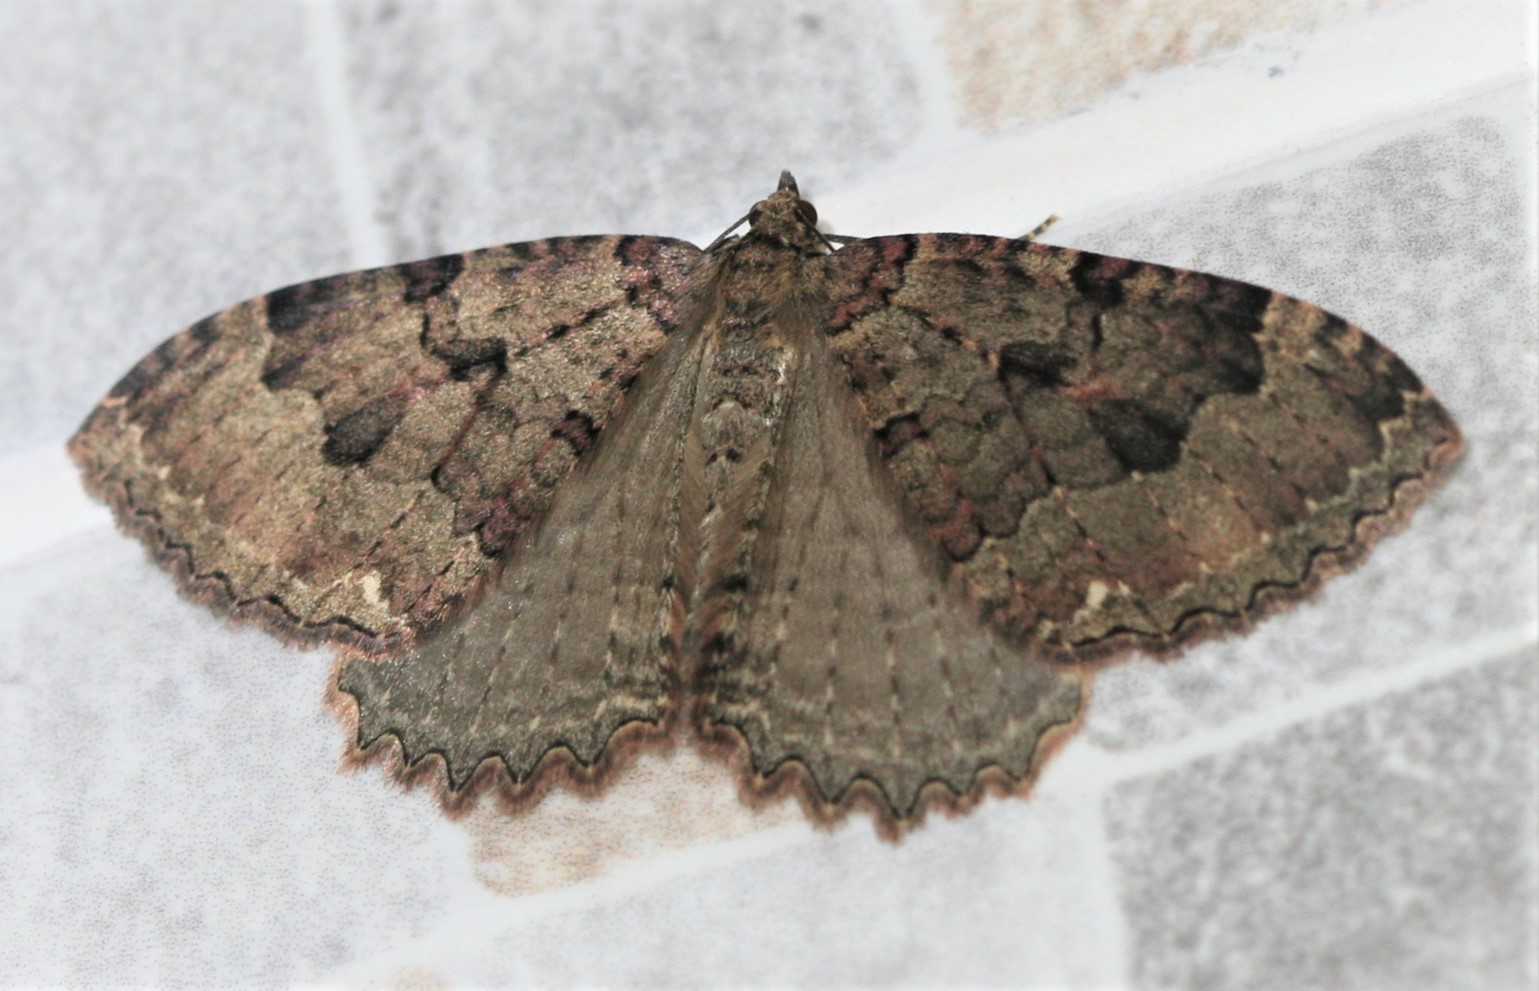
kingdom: Animalia
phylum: Arthropoda
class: Insecta
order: Lepidoptera
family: Geometridae
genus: Triphosa
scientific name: Triphosa dubitata
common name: Tissue
